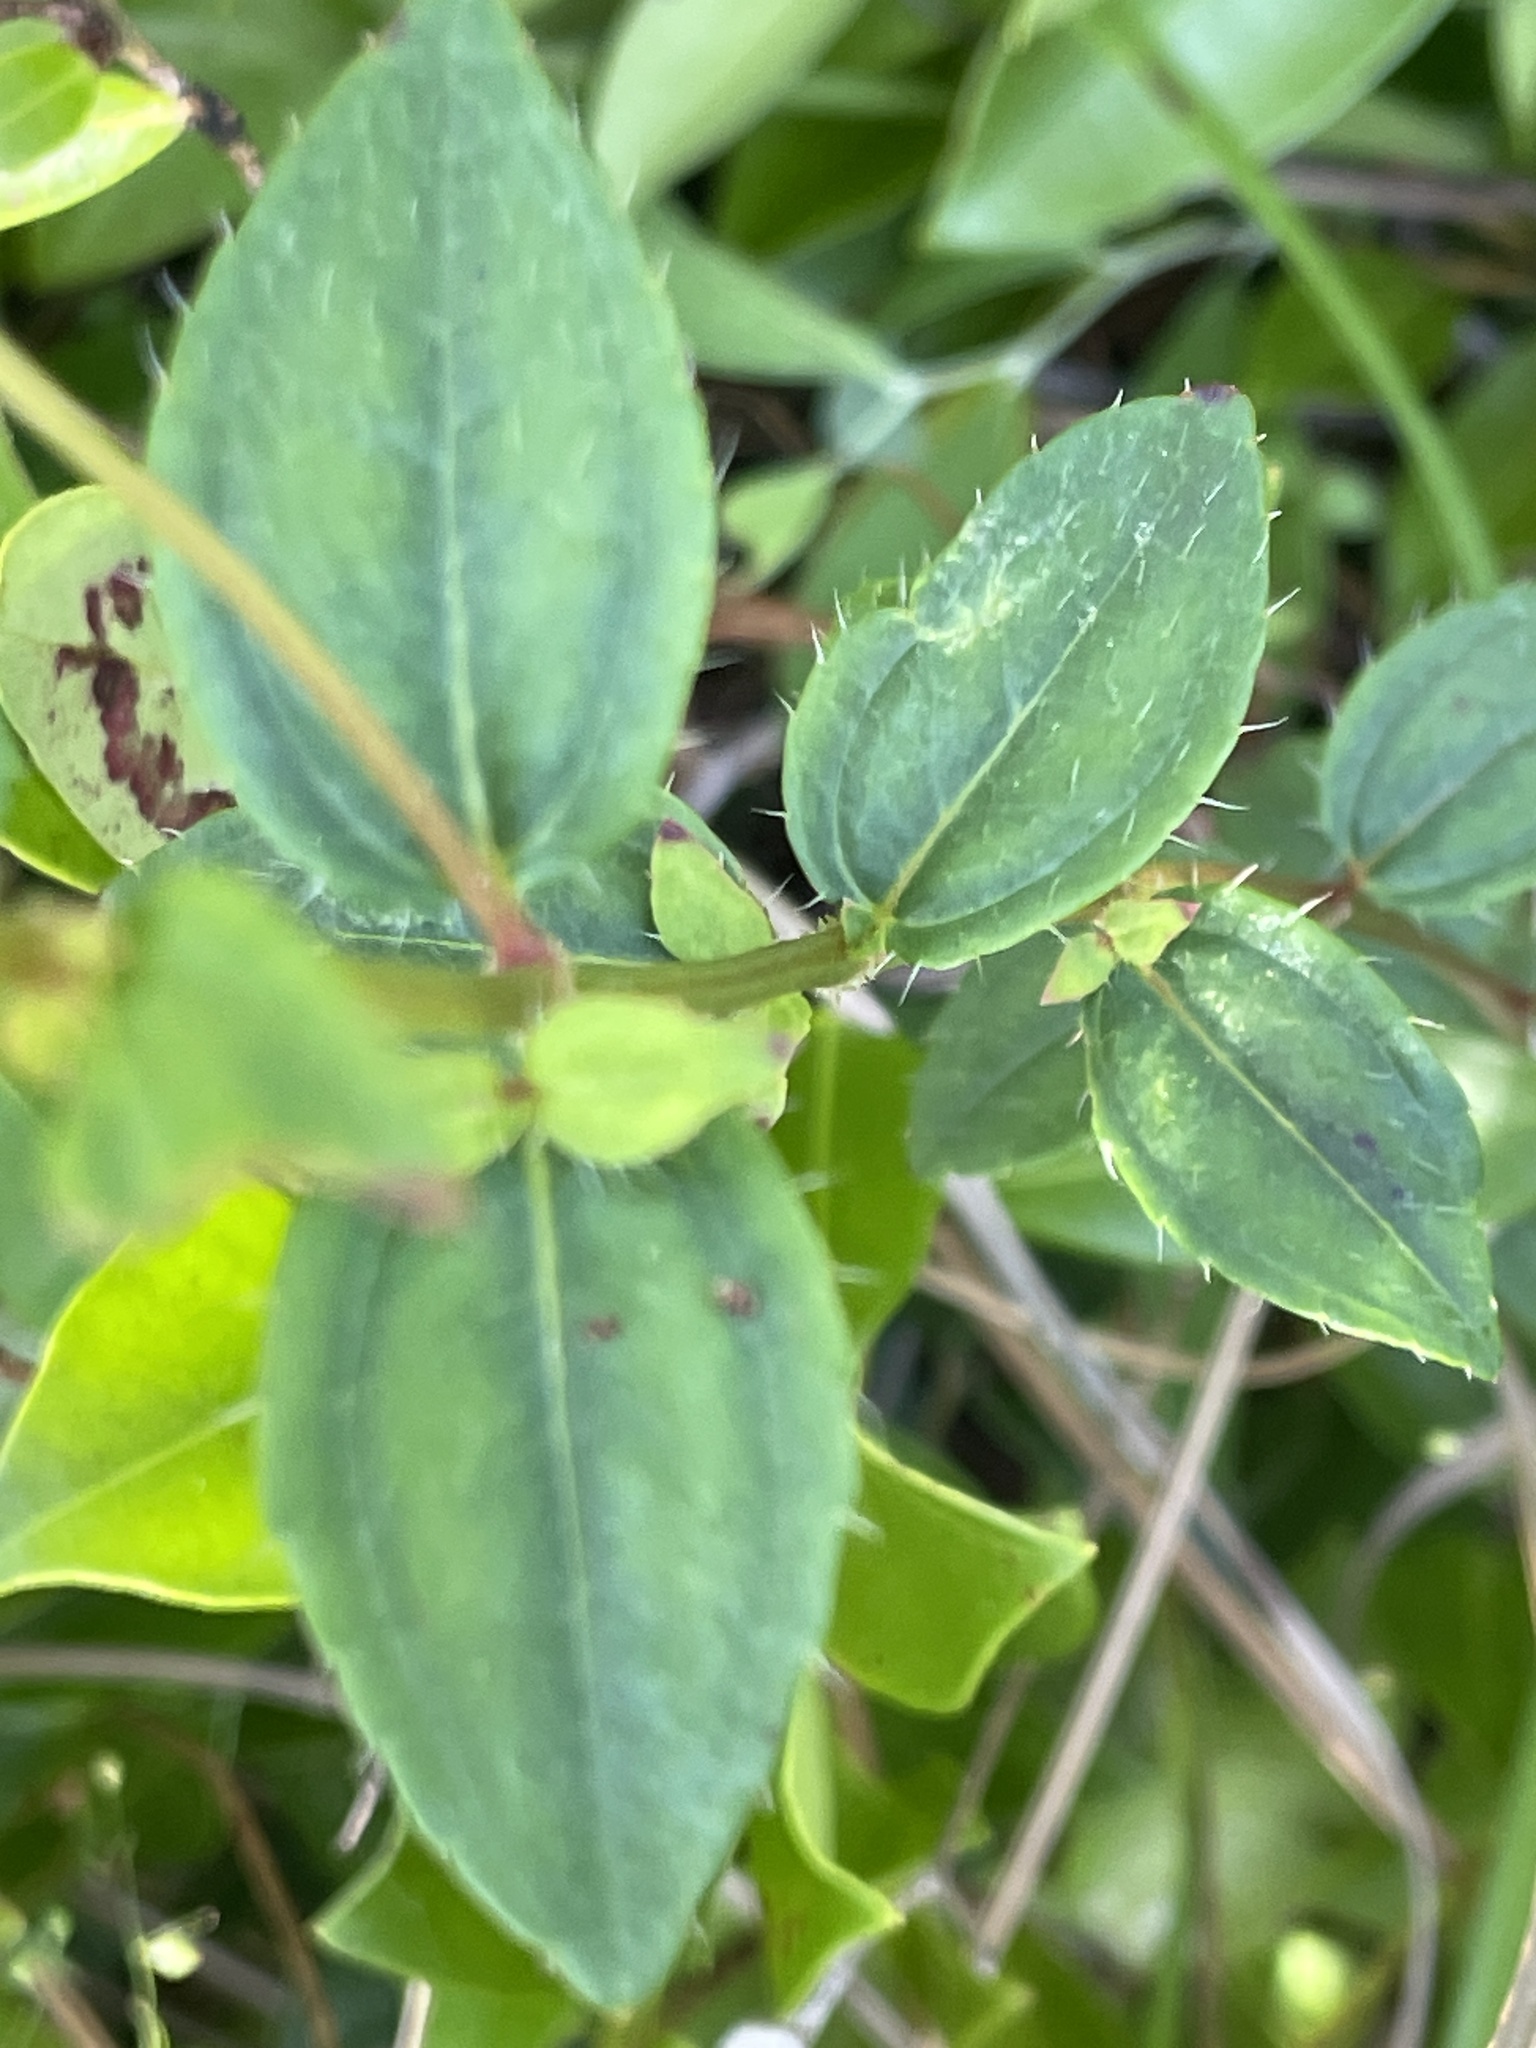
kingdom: Plantae
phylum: Tracheophyta
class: Magnoliopsida
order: Myrtales
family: Melastomataceae
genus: Rhexia
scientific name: Rhexia petiolata
